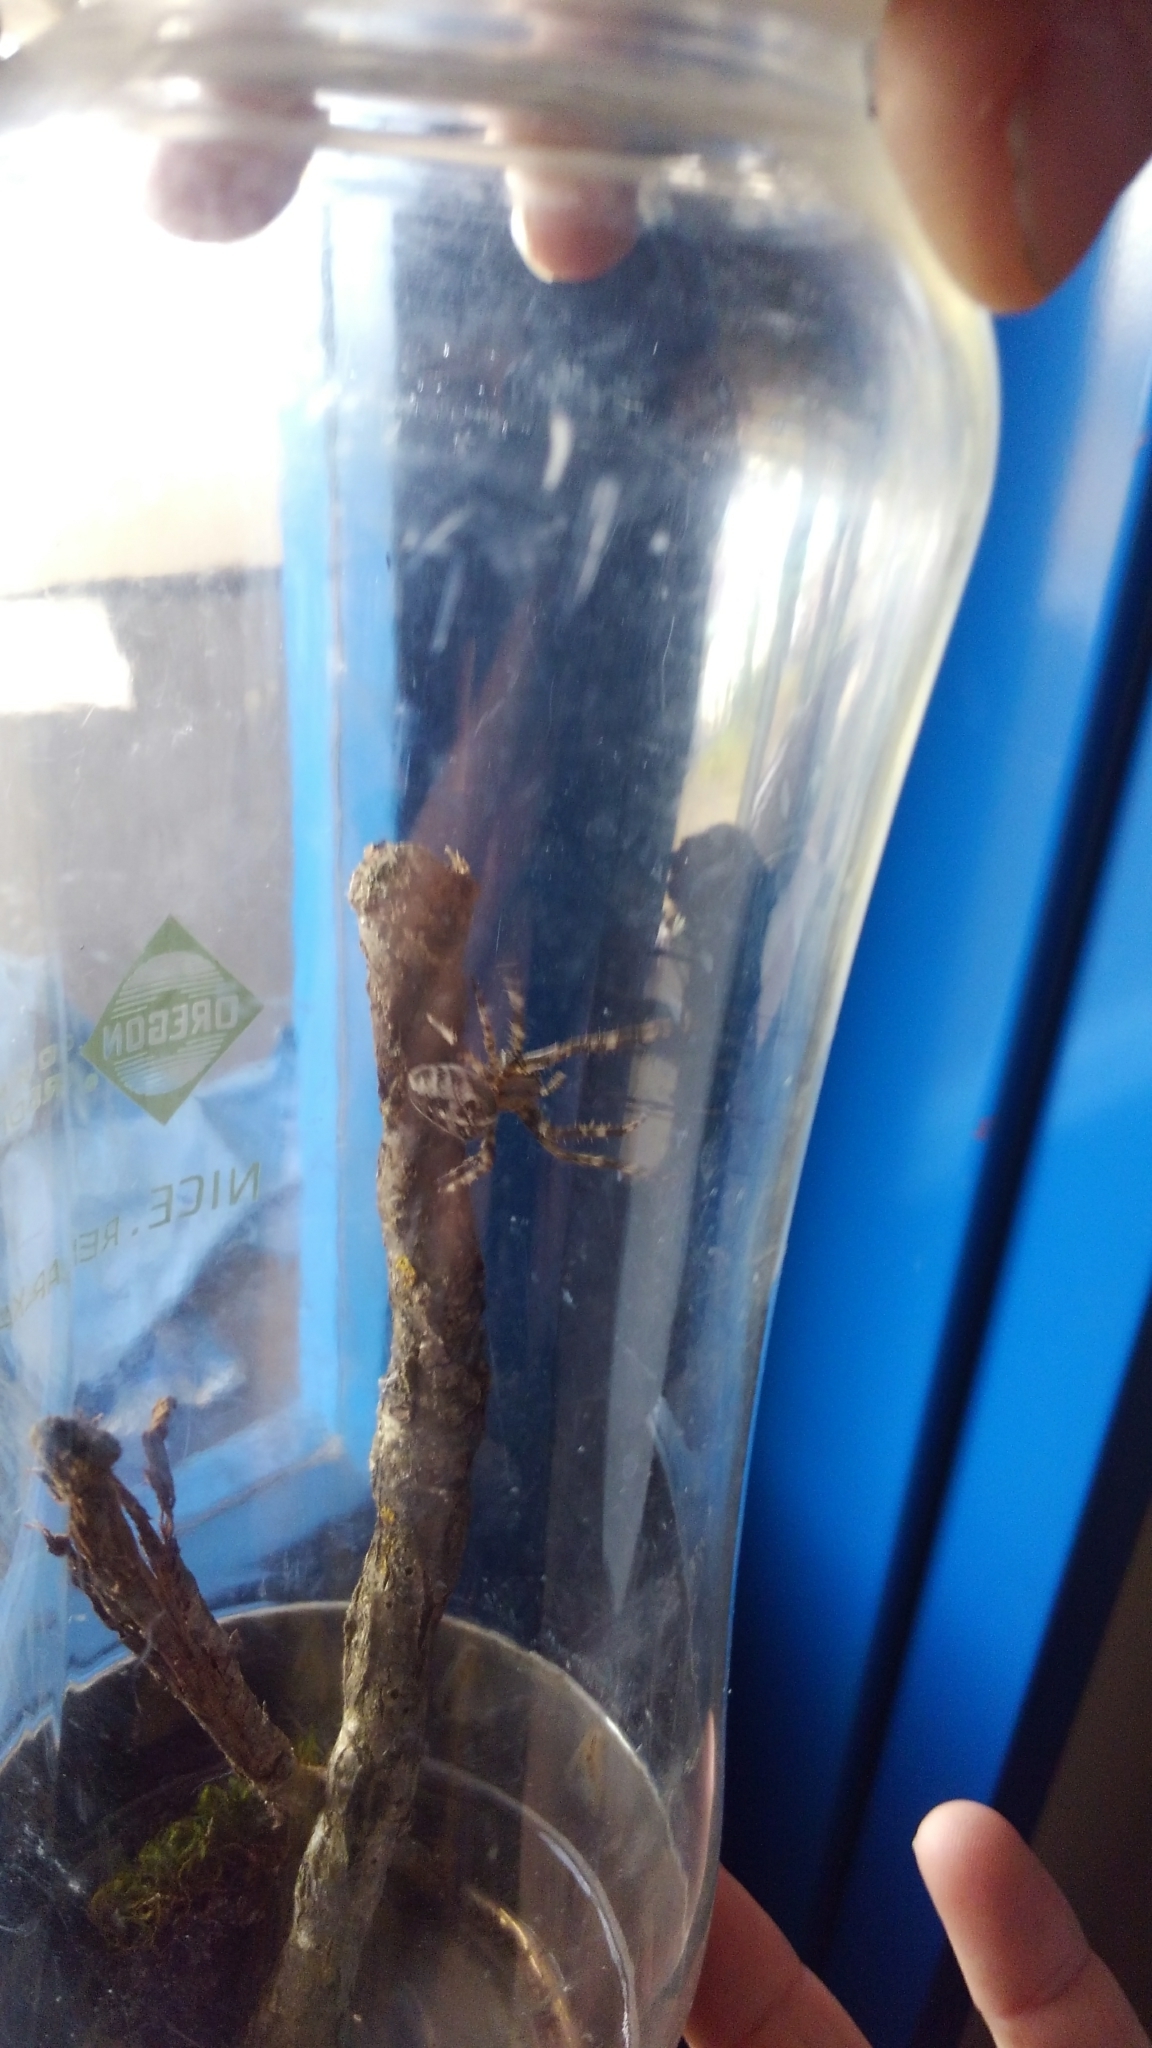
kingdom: Animalia
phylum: Arthropoda
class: Arachnida
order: Araneae
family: Araneidae
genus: Araneus
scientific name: Araneus diadematus
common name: Cross orbweaver
